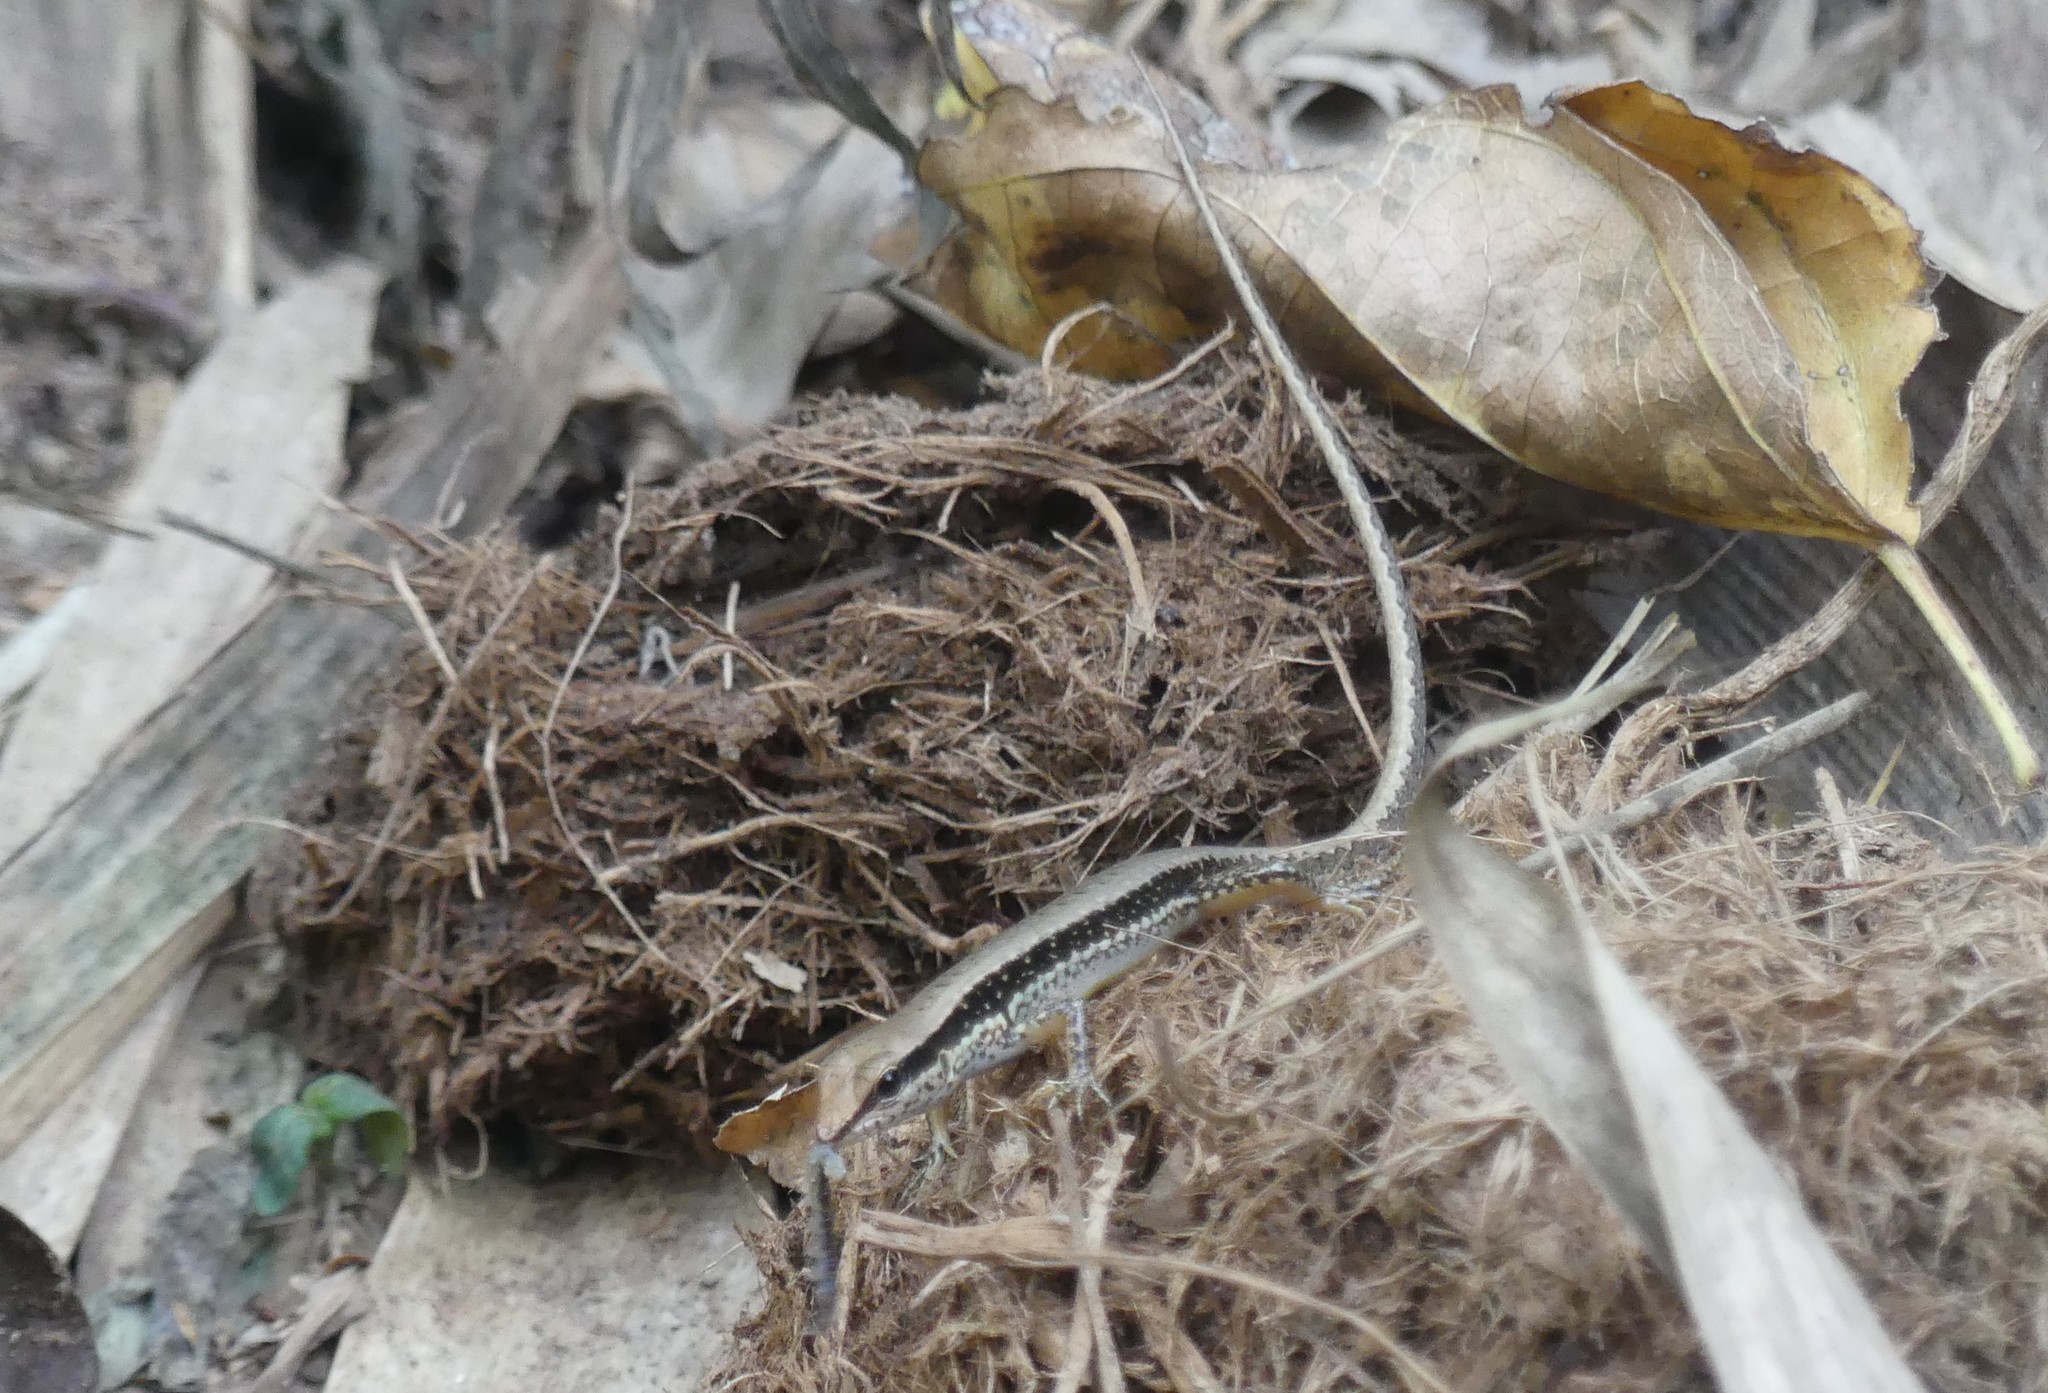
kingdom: Animalia
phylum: Chordata
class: Squamata
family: Scincidae
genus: Sphenomorphus
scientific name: Sphenomorphus maculatus
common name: Maculated forest skink
